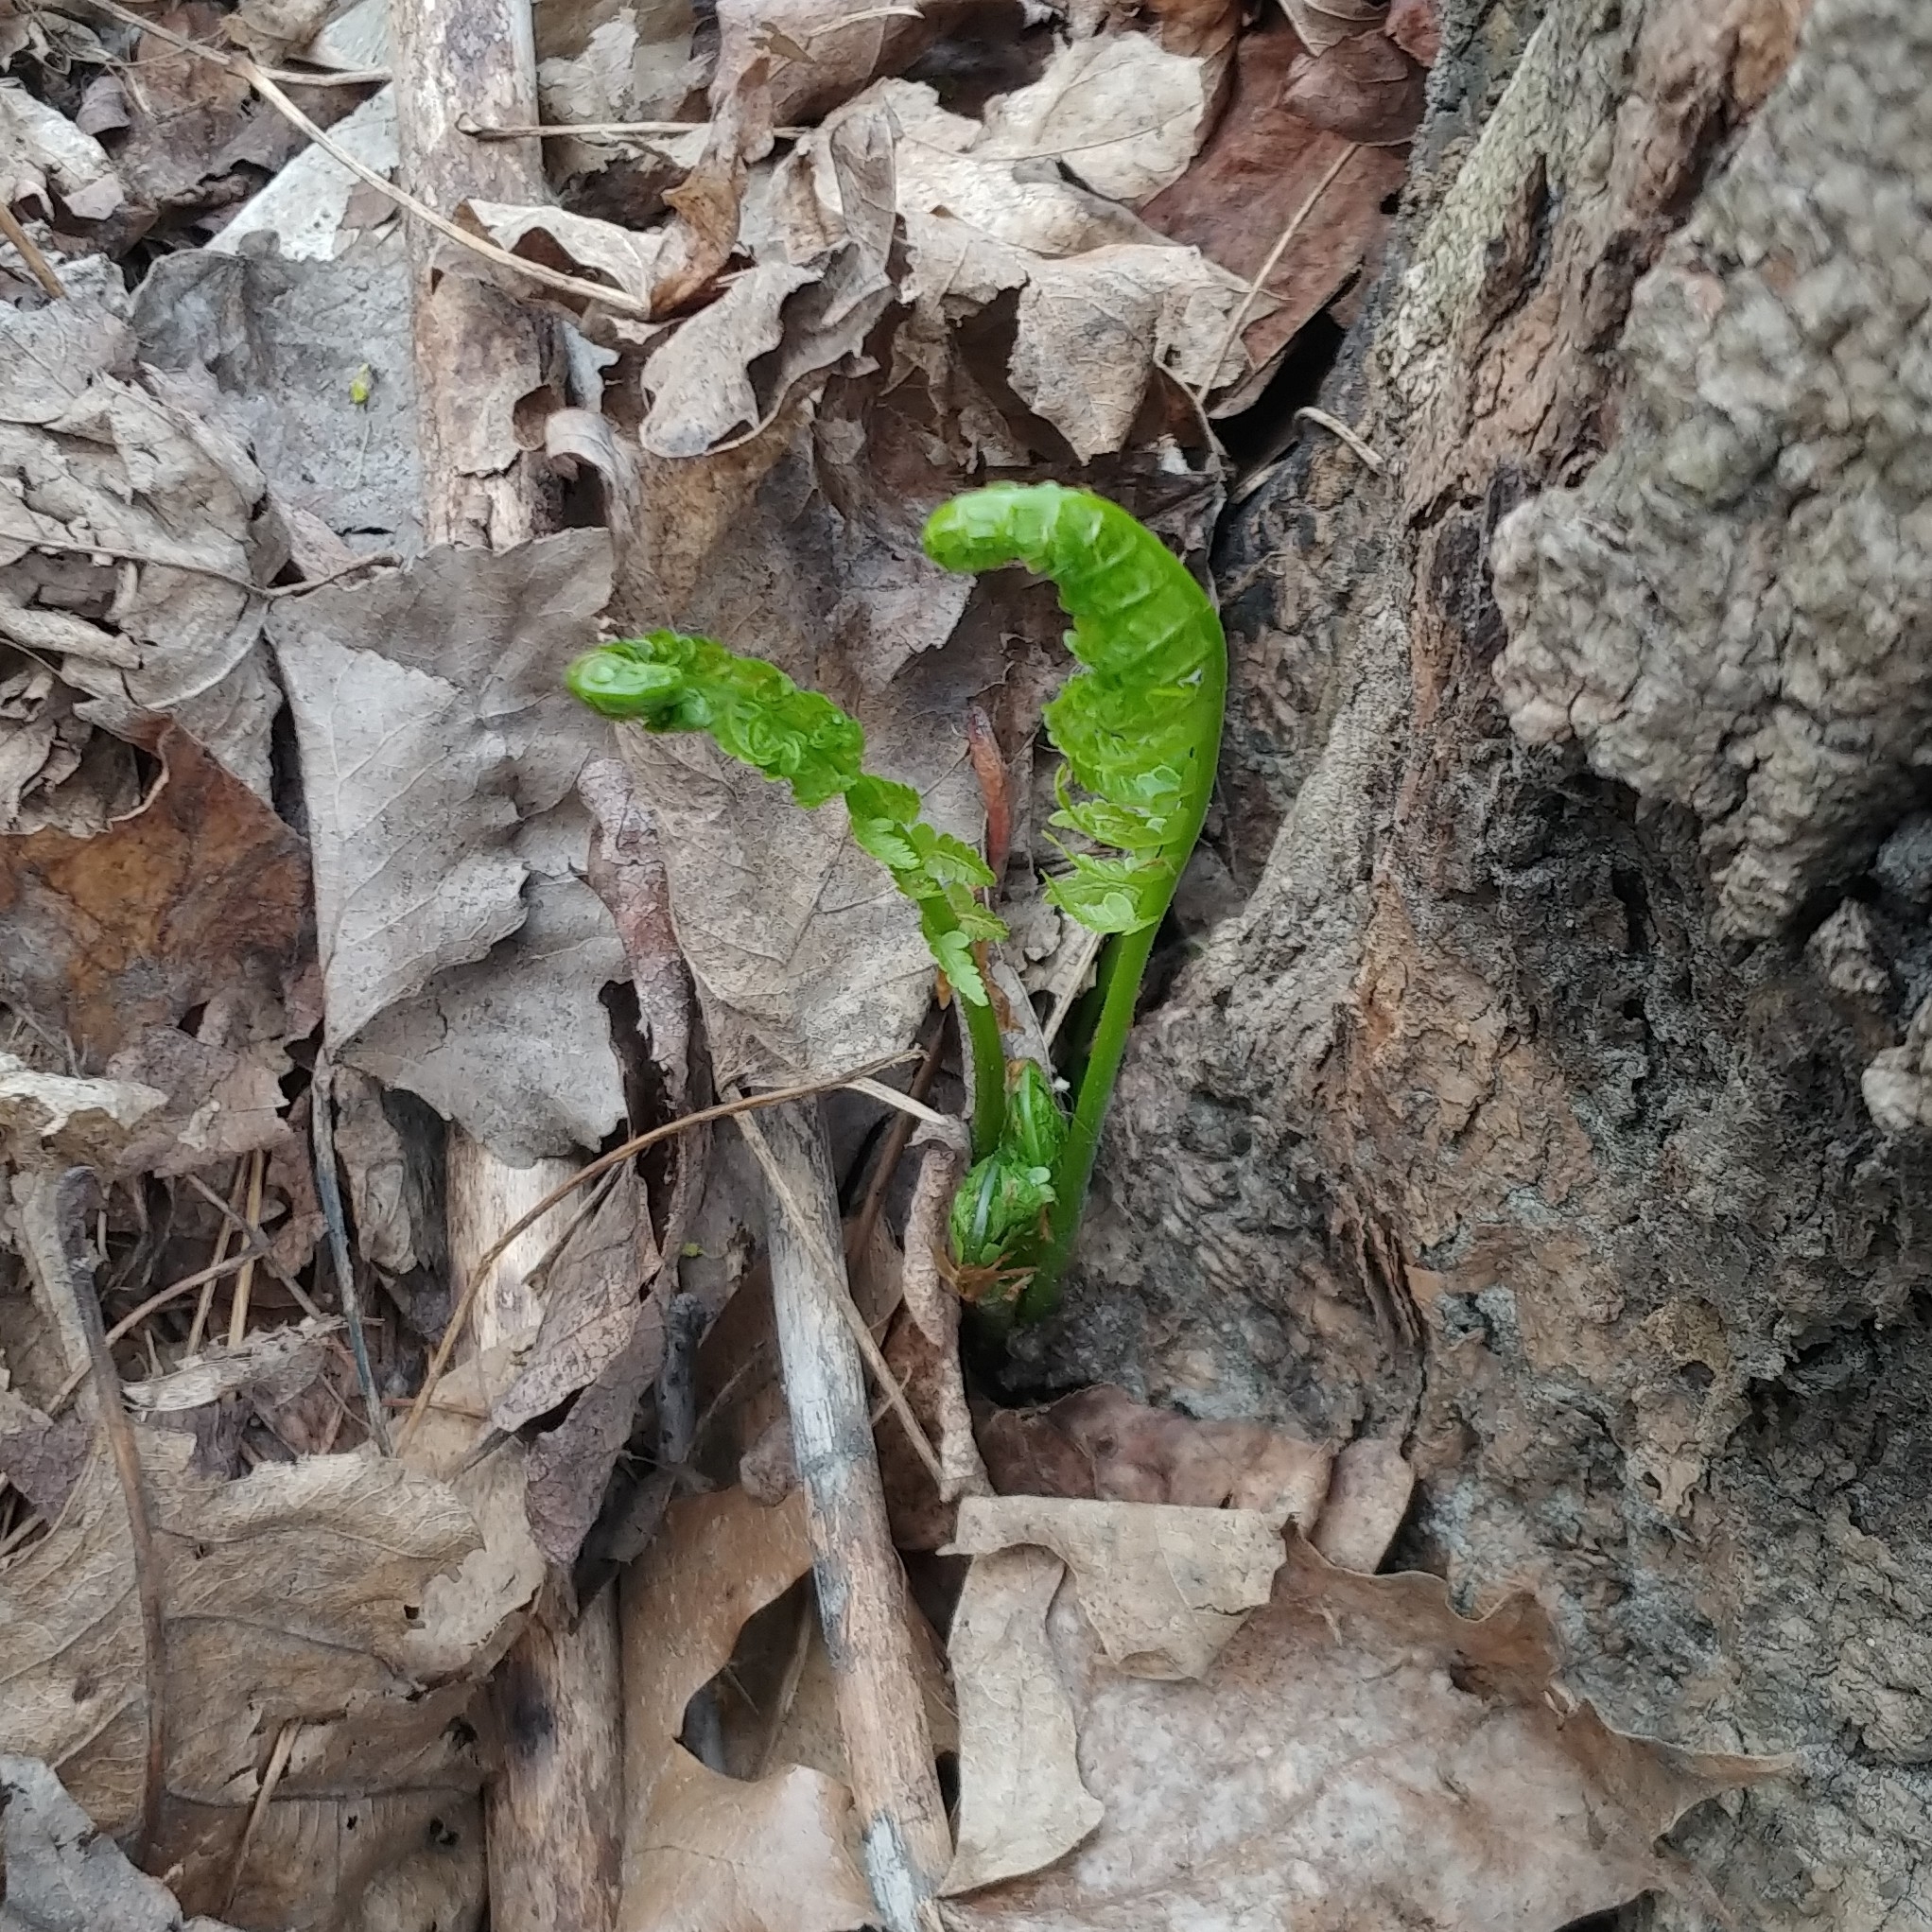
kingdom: Plantae
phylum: Tracheophyta
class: Polypodiopsida
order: Polypodiales
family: Onocleaceae
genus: Matteuccia
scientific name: Matteuccia struthiopteris
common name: Ostrich fern
